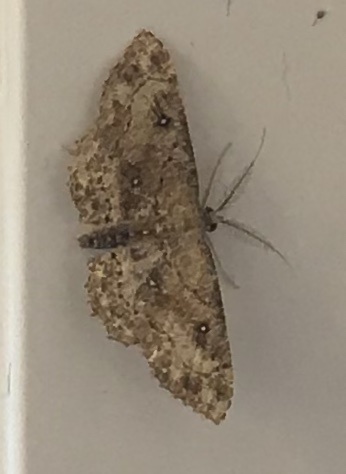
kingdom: Animalia
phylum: Arthropoda
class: Insecta
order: Lepidoptera
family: Geometridae
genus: Cyclophora
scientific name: Cyclophora nanaria
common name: Cankerworm
